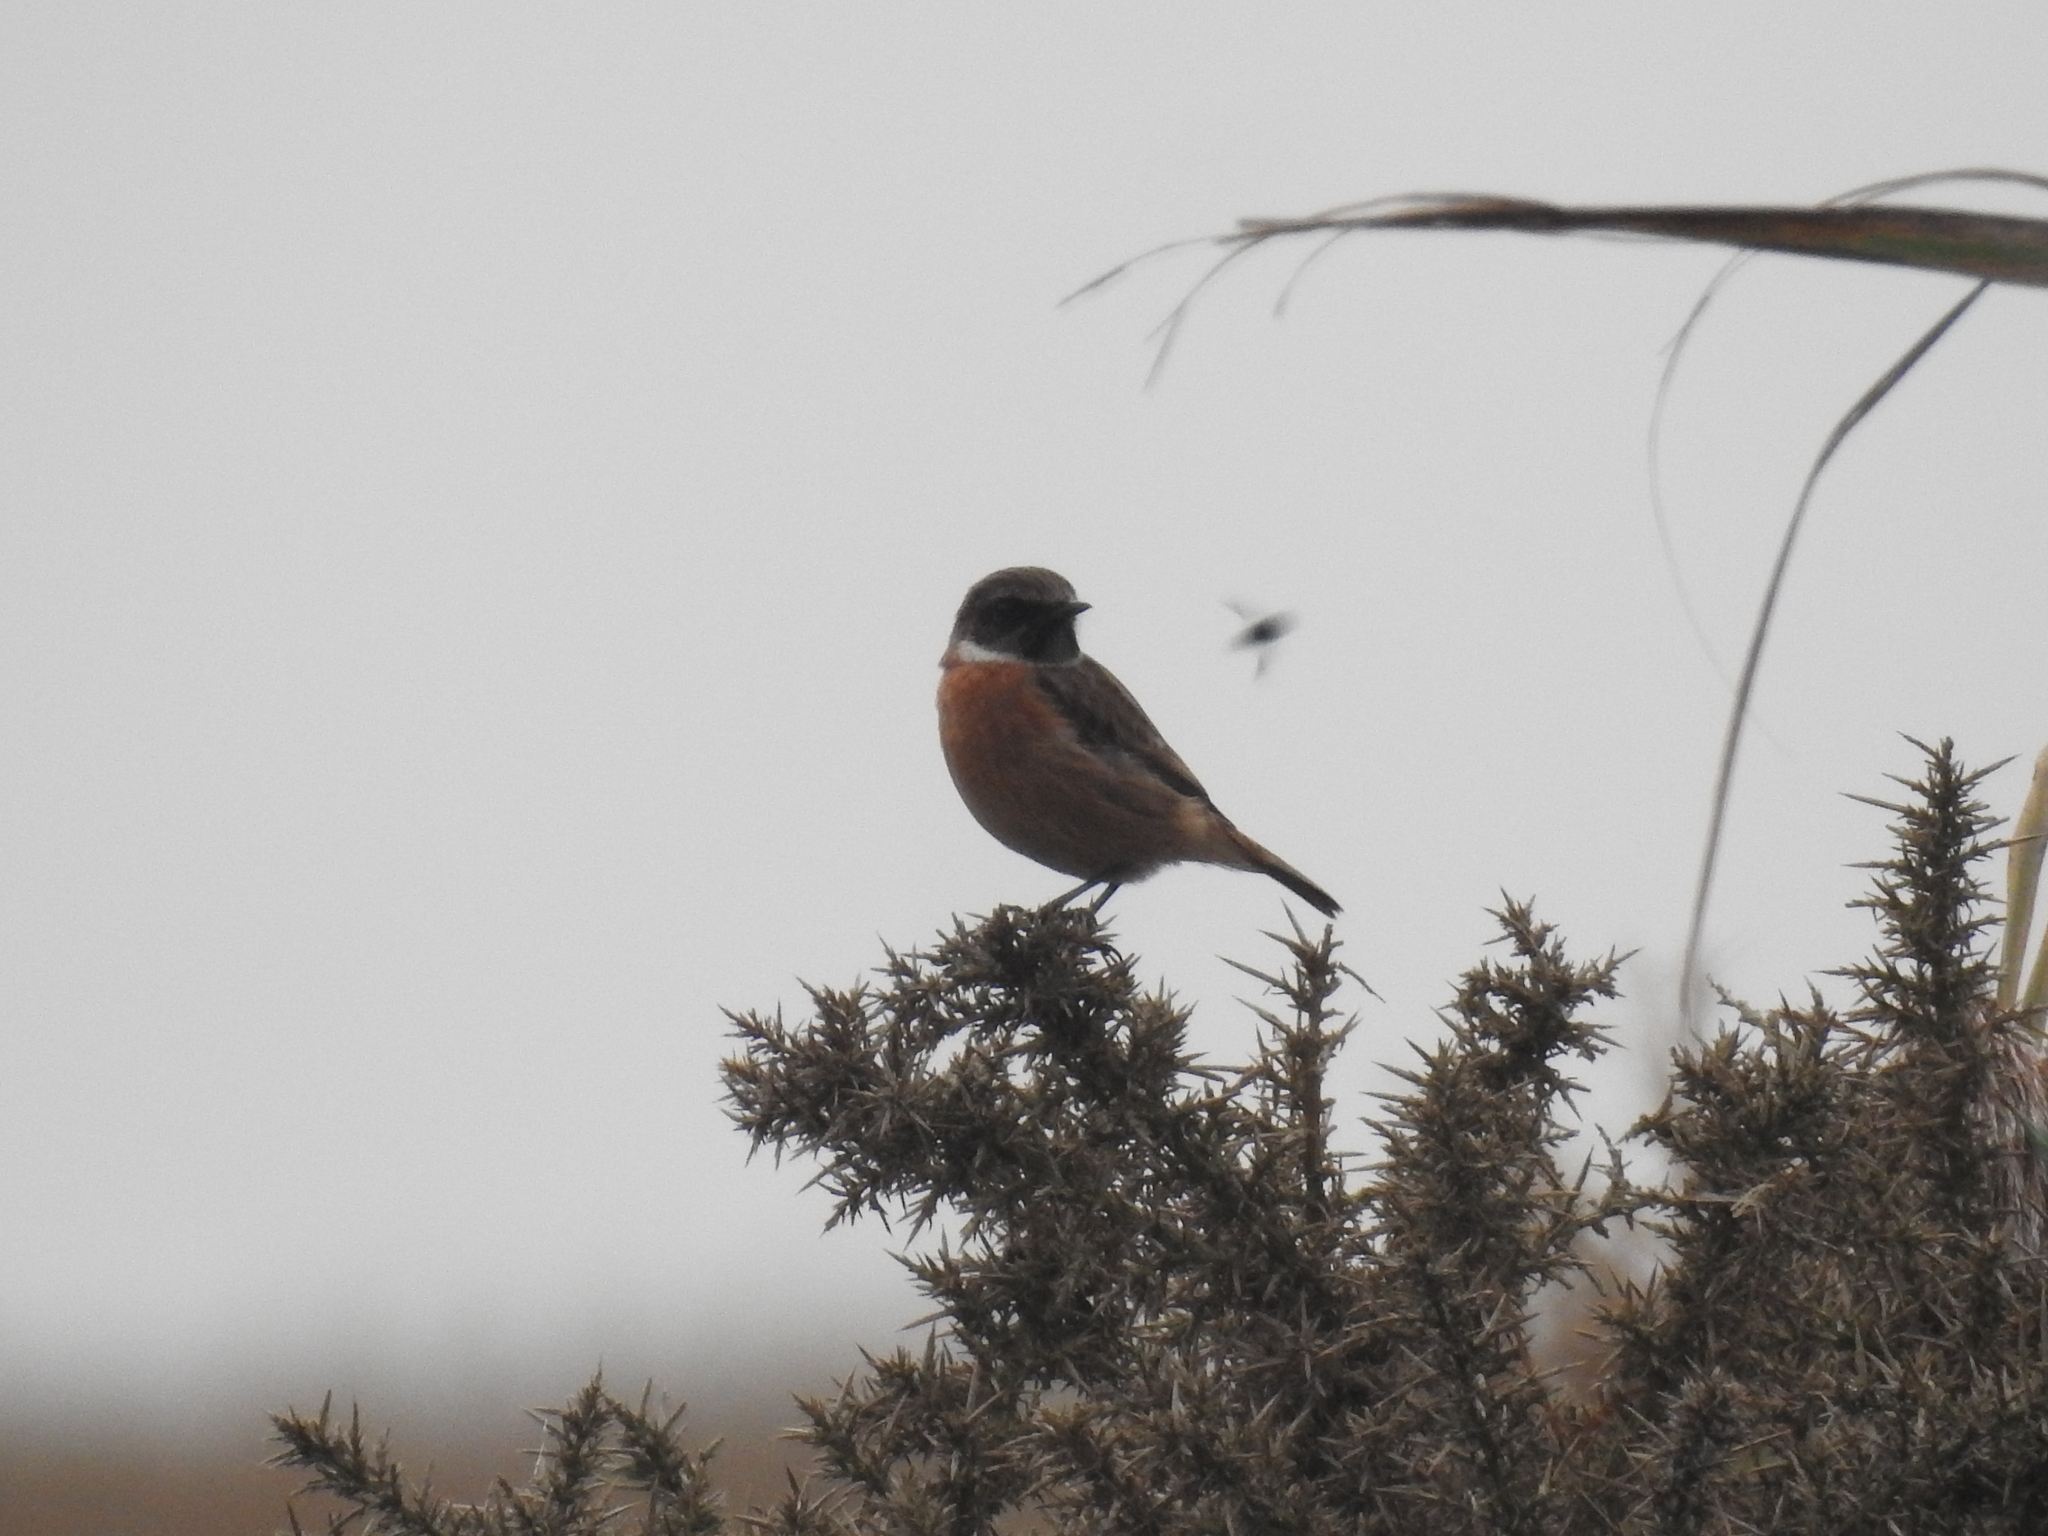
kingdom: Animalia
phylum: Chordata
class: Aves
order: Passeriformes
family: Muscicapidae
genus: Saxicola
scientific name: Saxicola rubicola
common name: European stonechat
